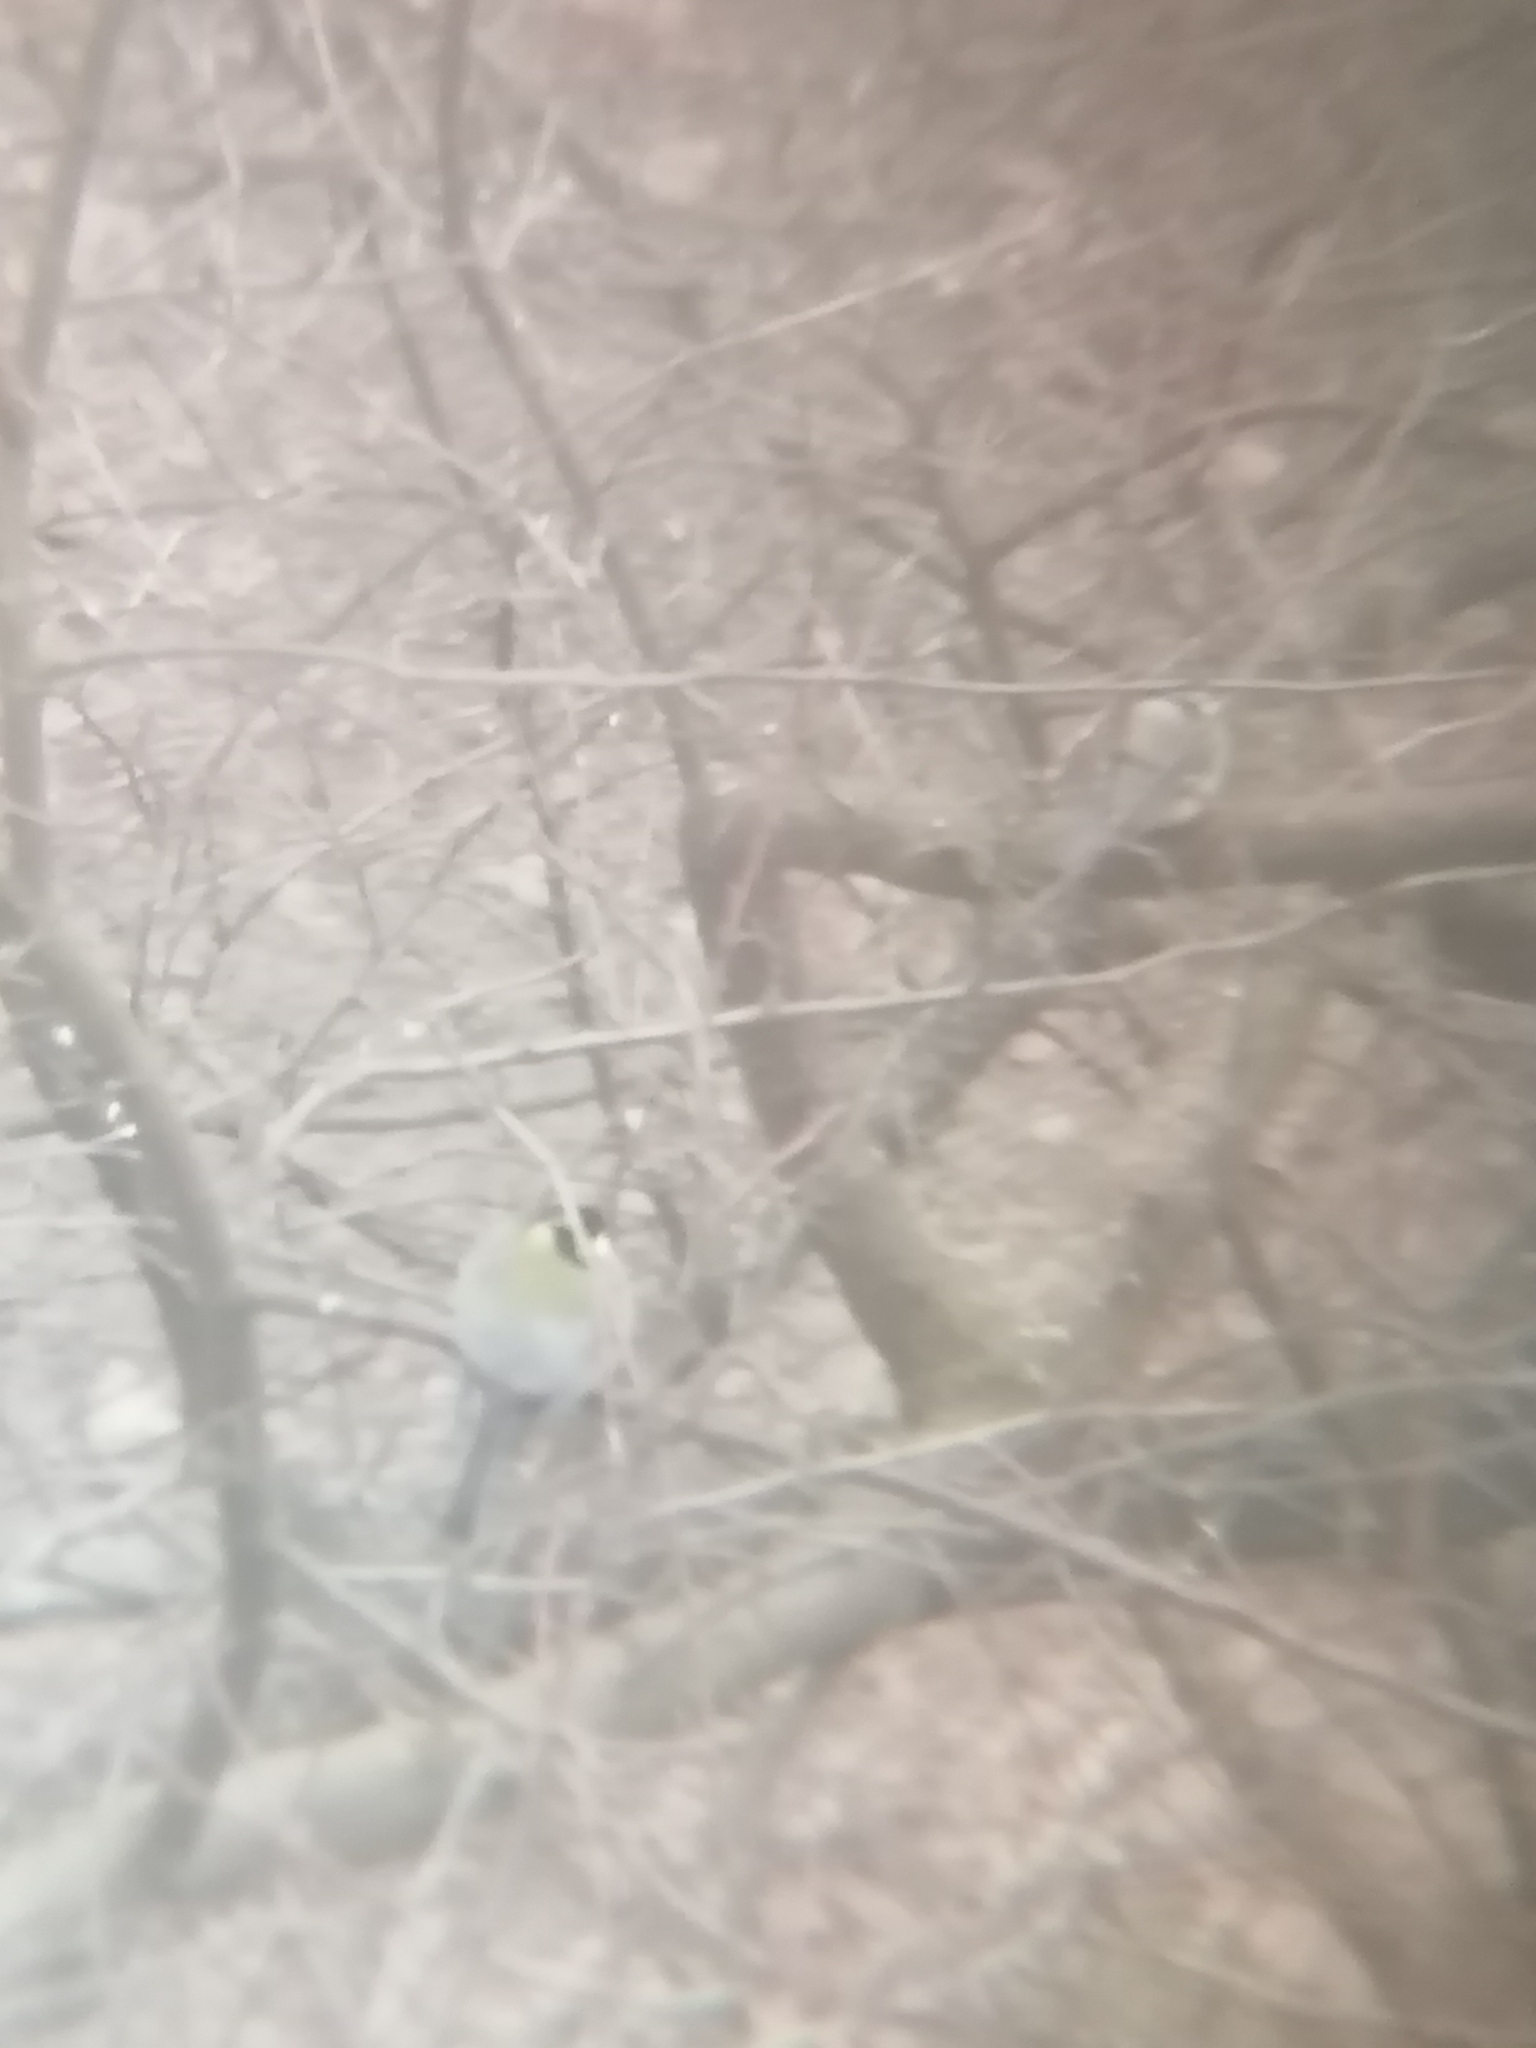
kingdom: Animalia
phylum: Chordata
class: Aves
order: Passeriformes
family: Paridae
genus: Parus
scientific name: Parus major
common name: Great tit
